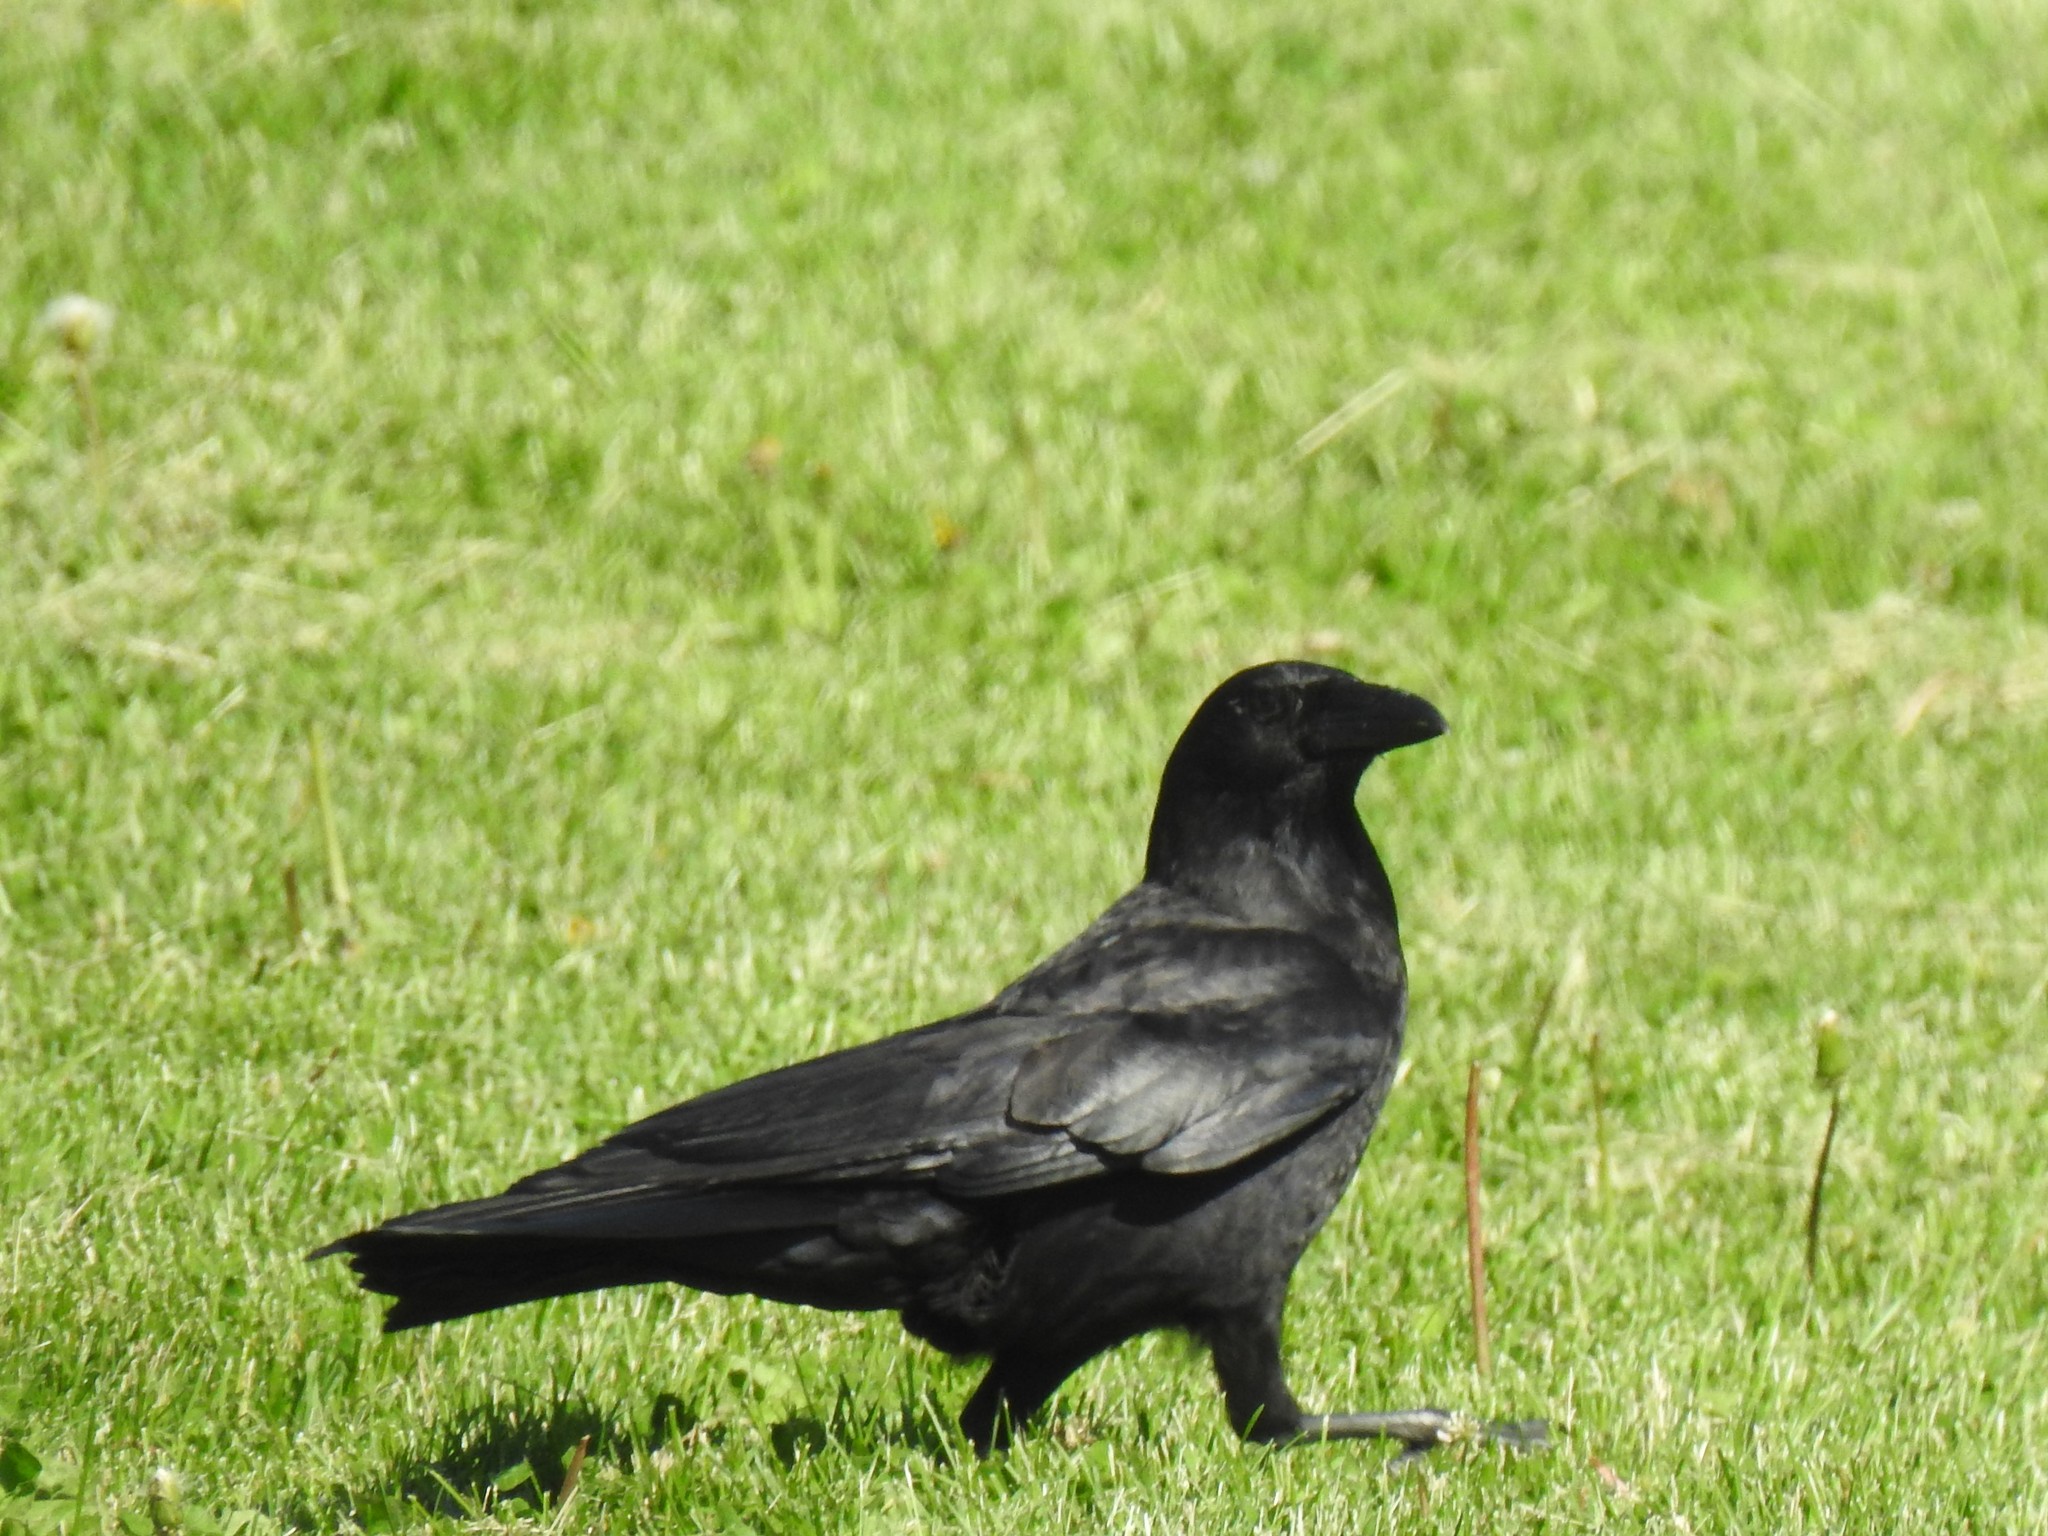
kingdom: Animalia
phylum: Chordata
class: Aves
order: Passeriformes
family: Corvidae
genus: Corvus
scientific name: Corvus brachyrhynchos
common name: American crow
